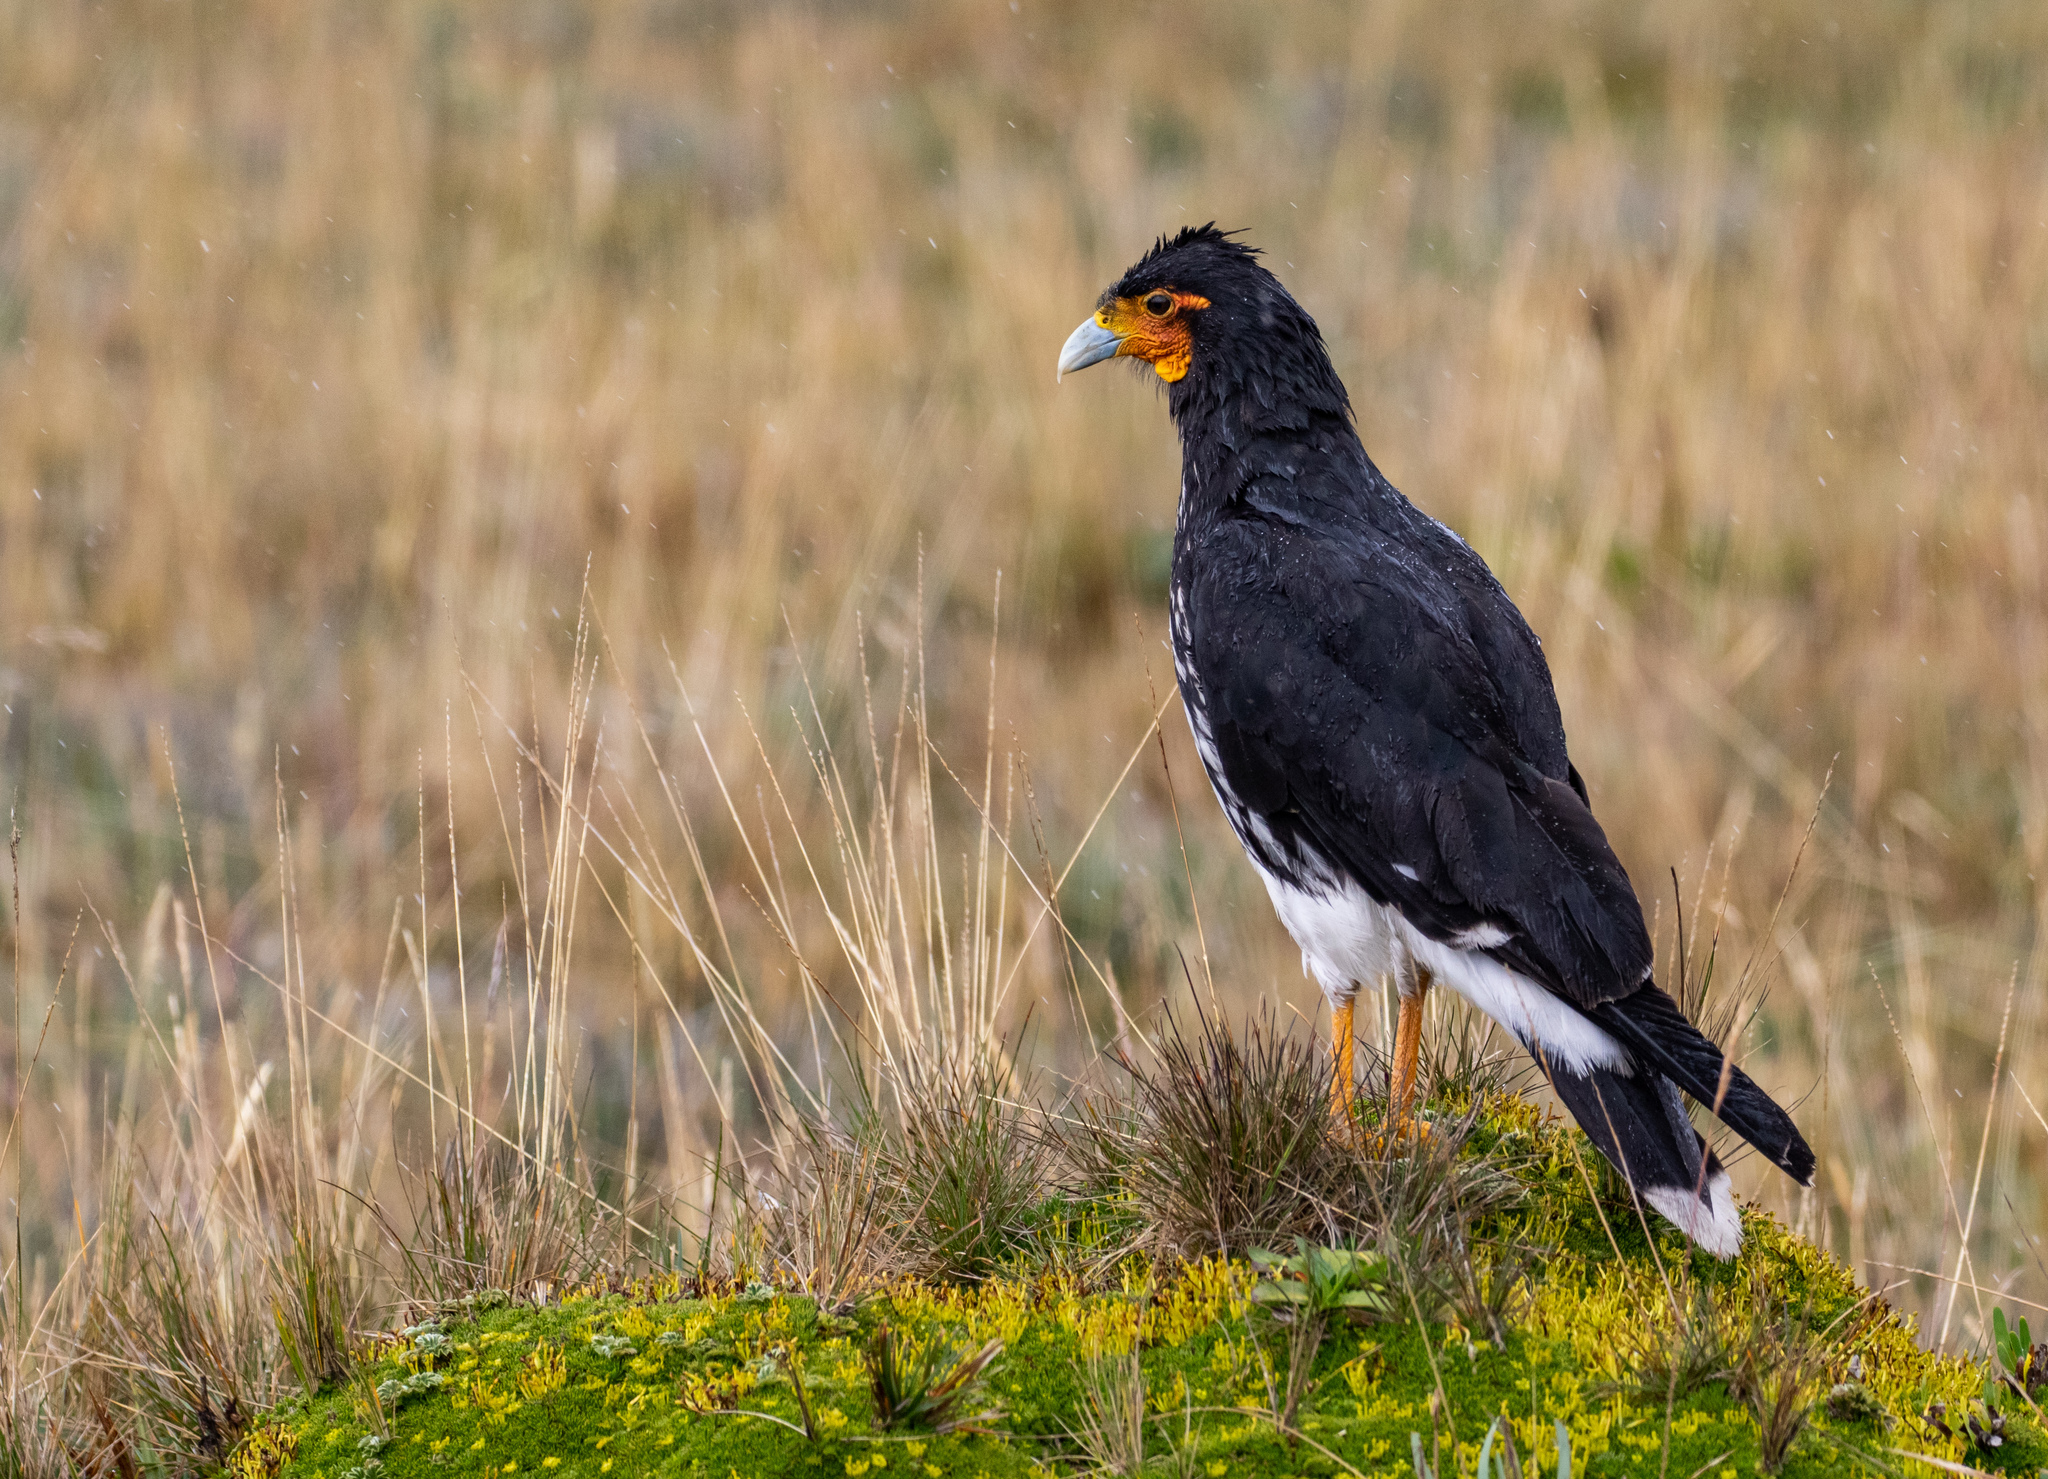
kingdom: Animalia
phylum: Chordata
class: Aves
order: Falconiformes
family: Falconidae
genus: Daptrius
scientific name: Daptrius
